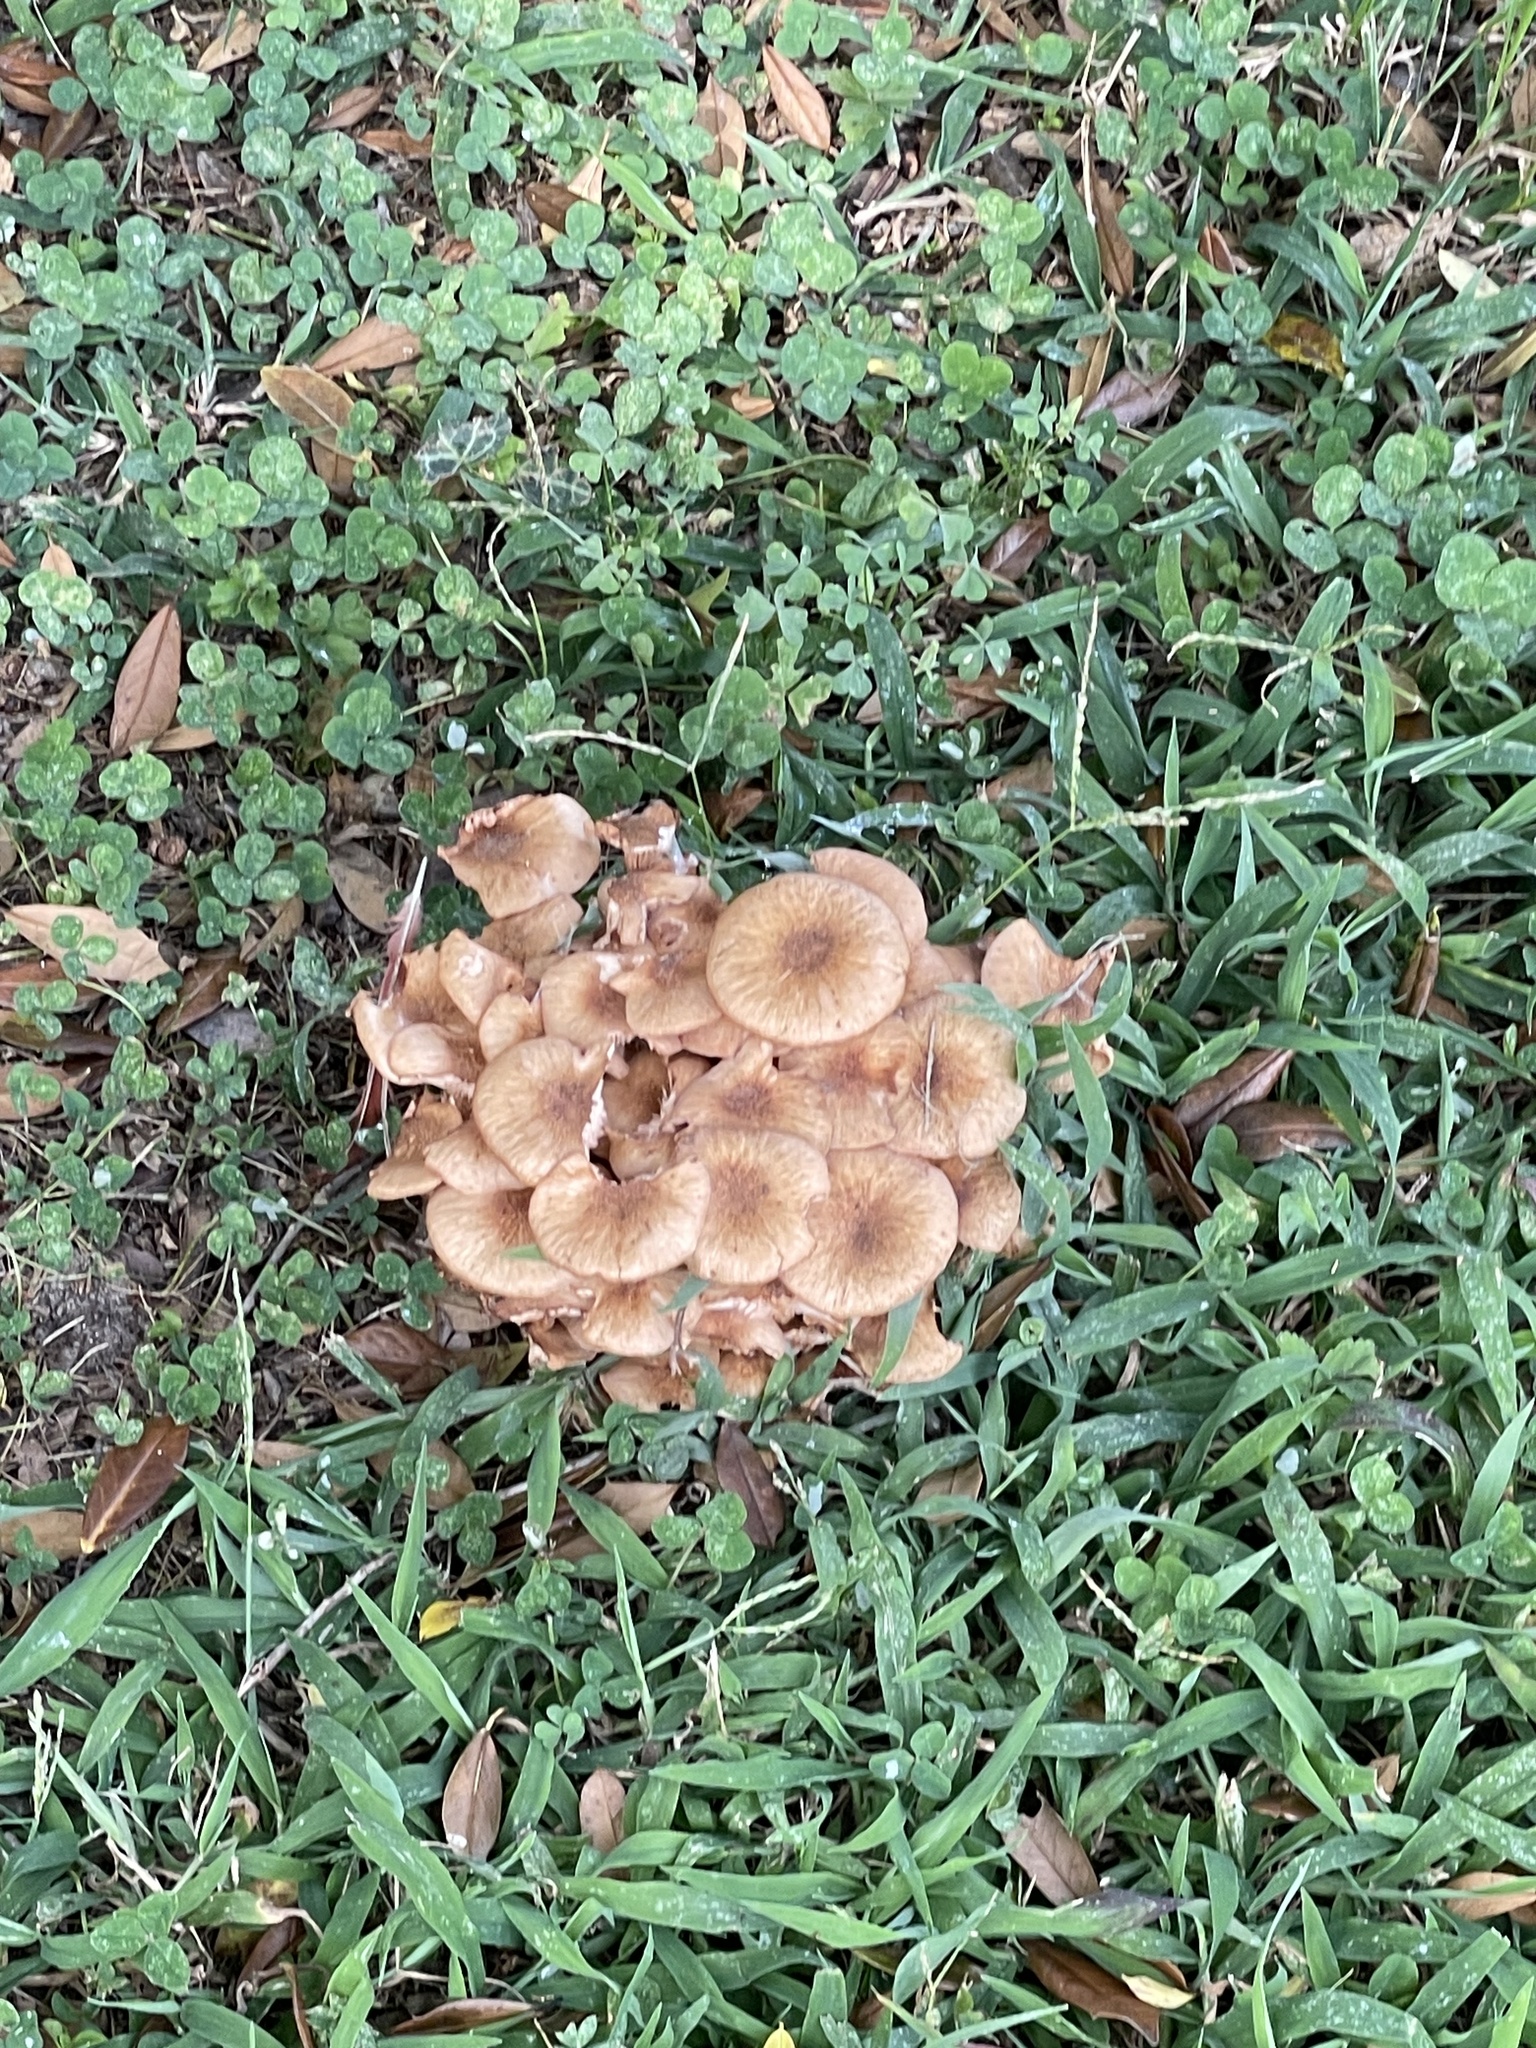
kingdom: Fungi
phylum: Basidiomycota
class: Agaricomycetes
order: Agaricales
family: Physalacriaceae
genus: Desarmillaria
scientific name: Desarmillaria caespitosa
